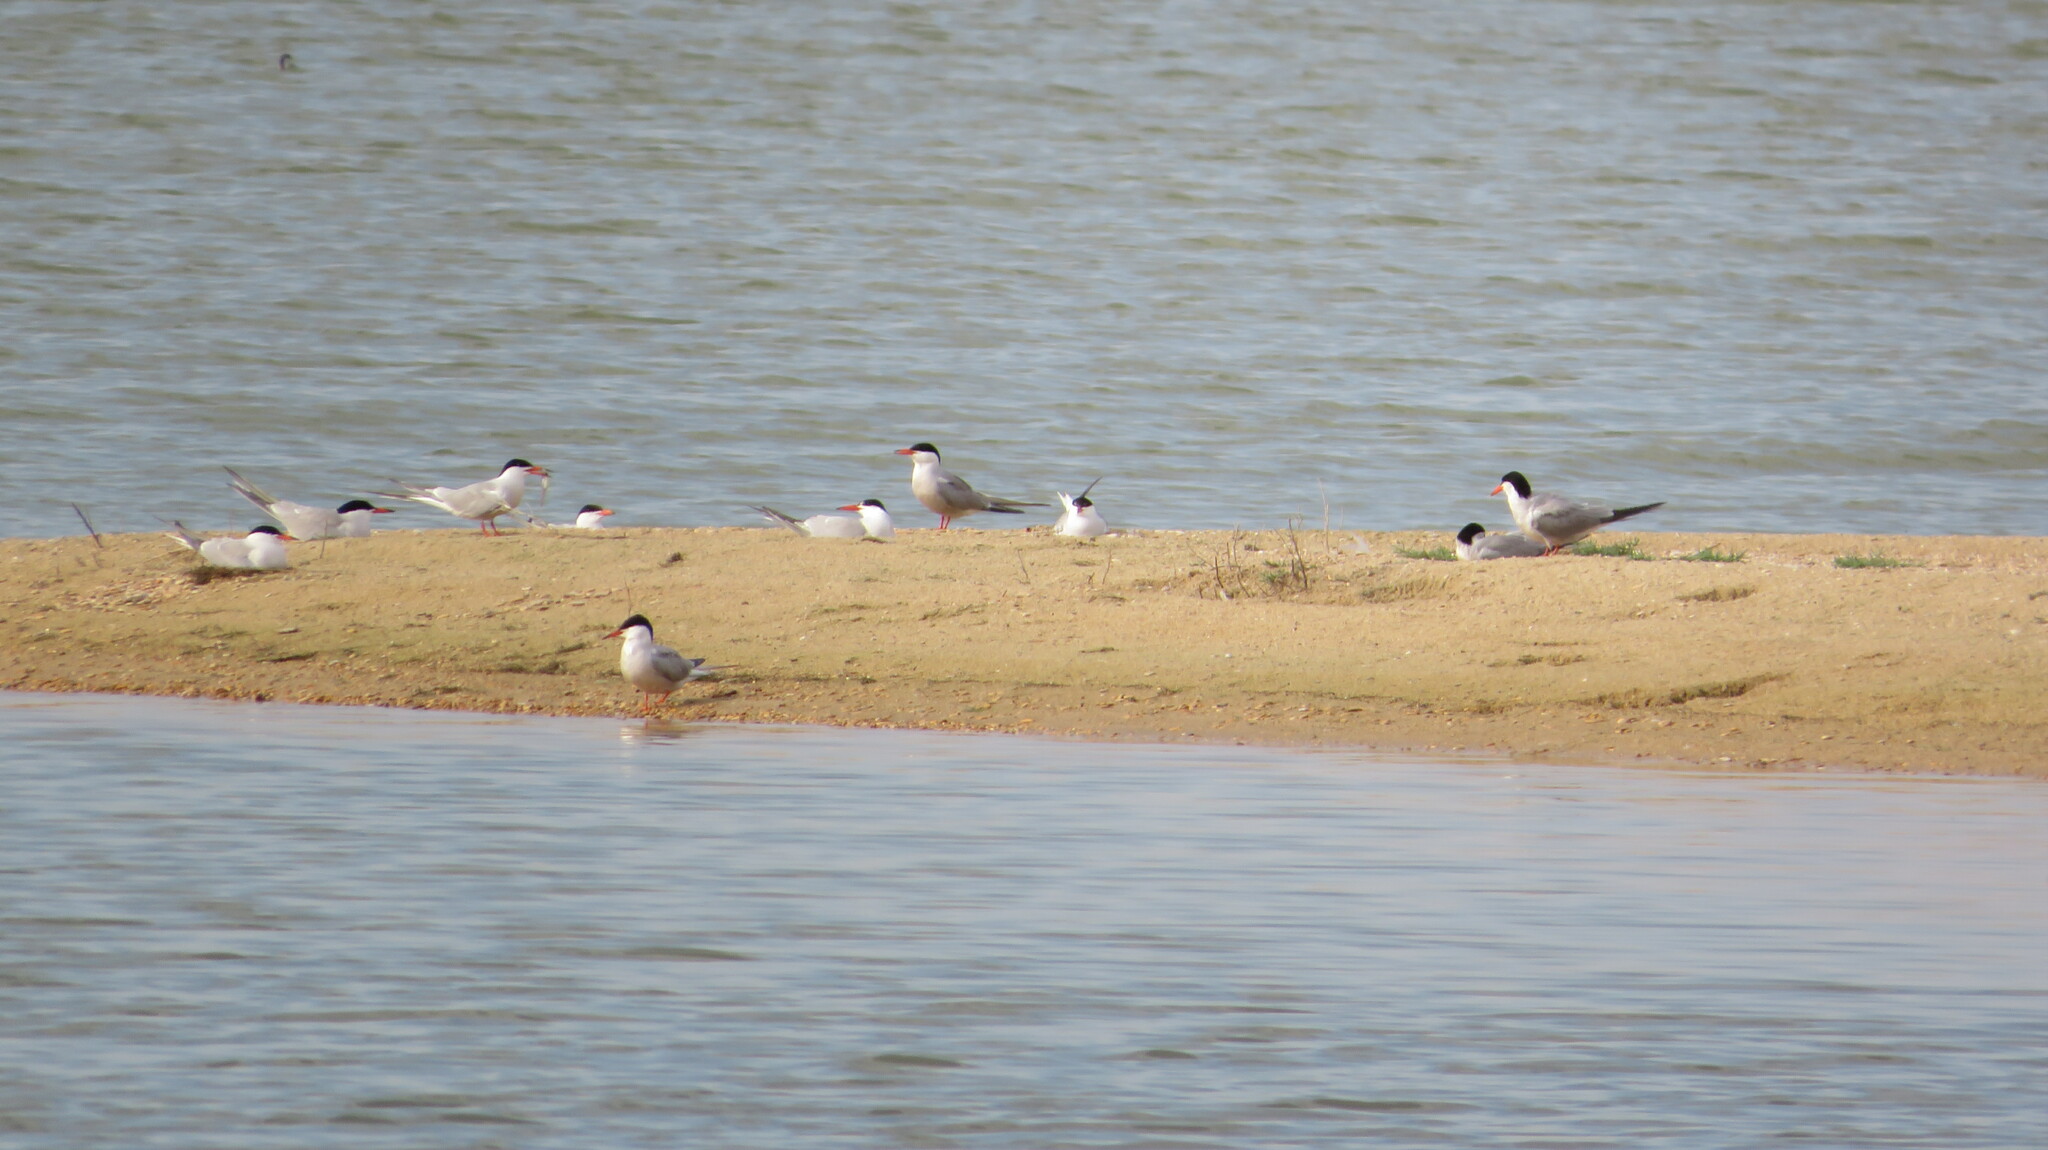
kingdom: Animalia
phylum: Chordata
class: Aves
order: Charadriiformes
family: Laridae
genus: Sterna
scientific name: Sterna hirundo
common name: Common tern
